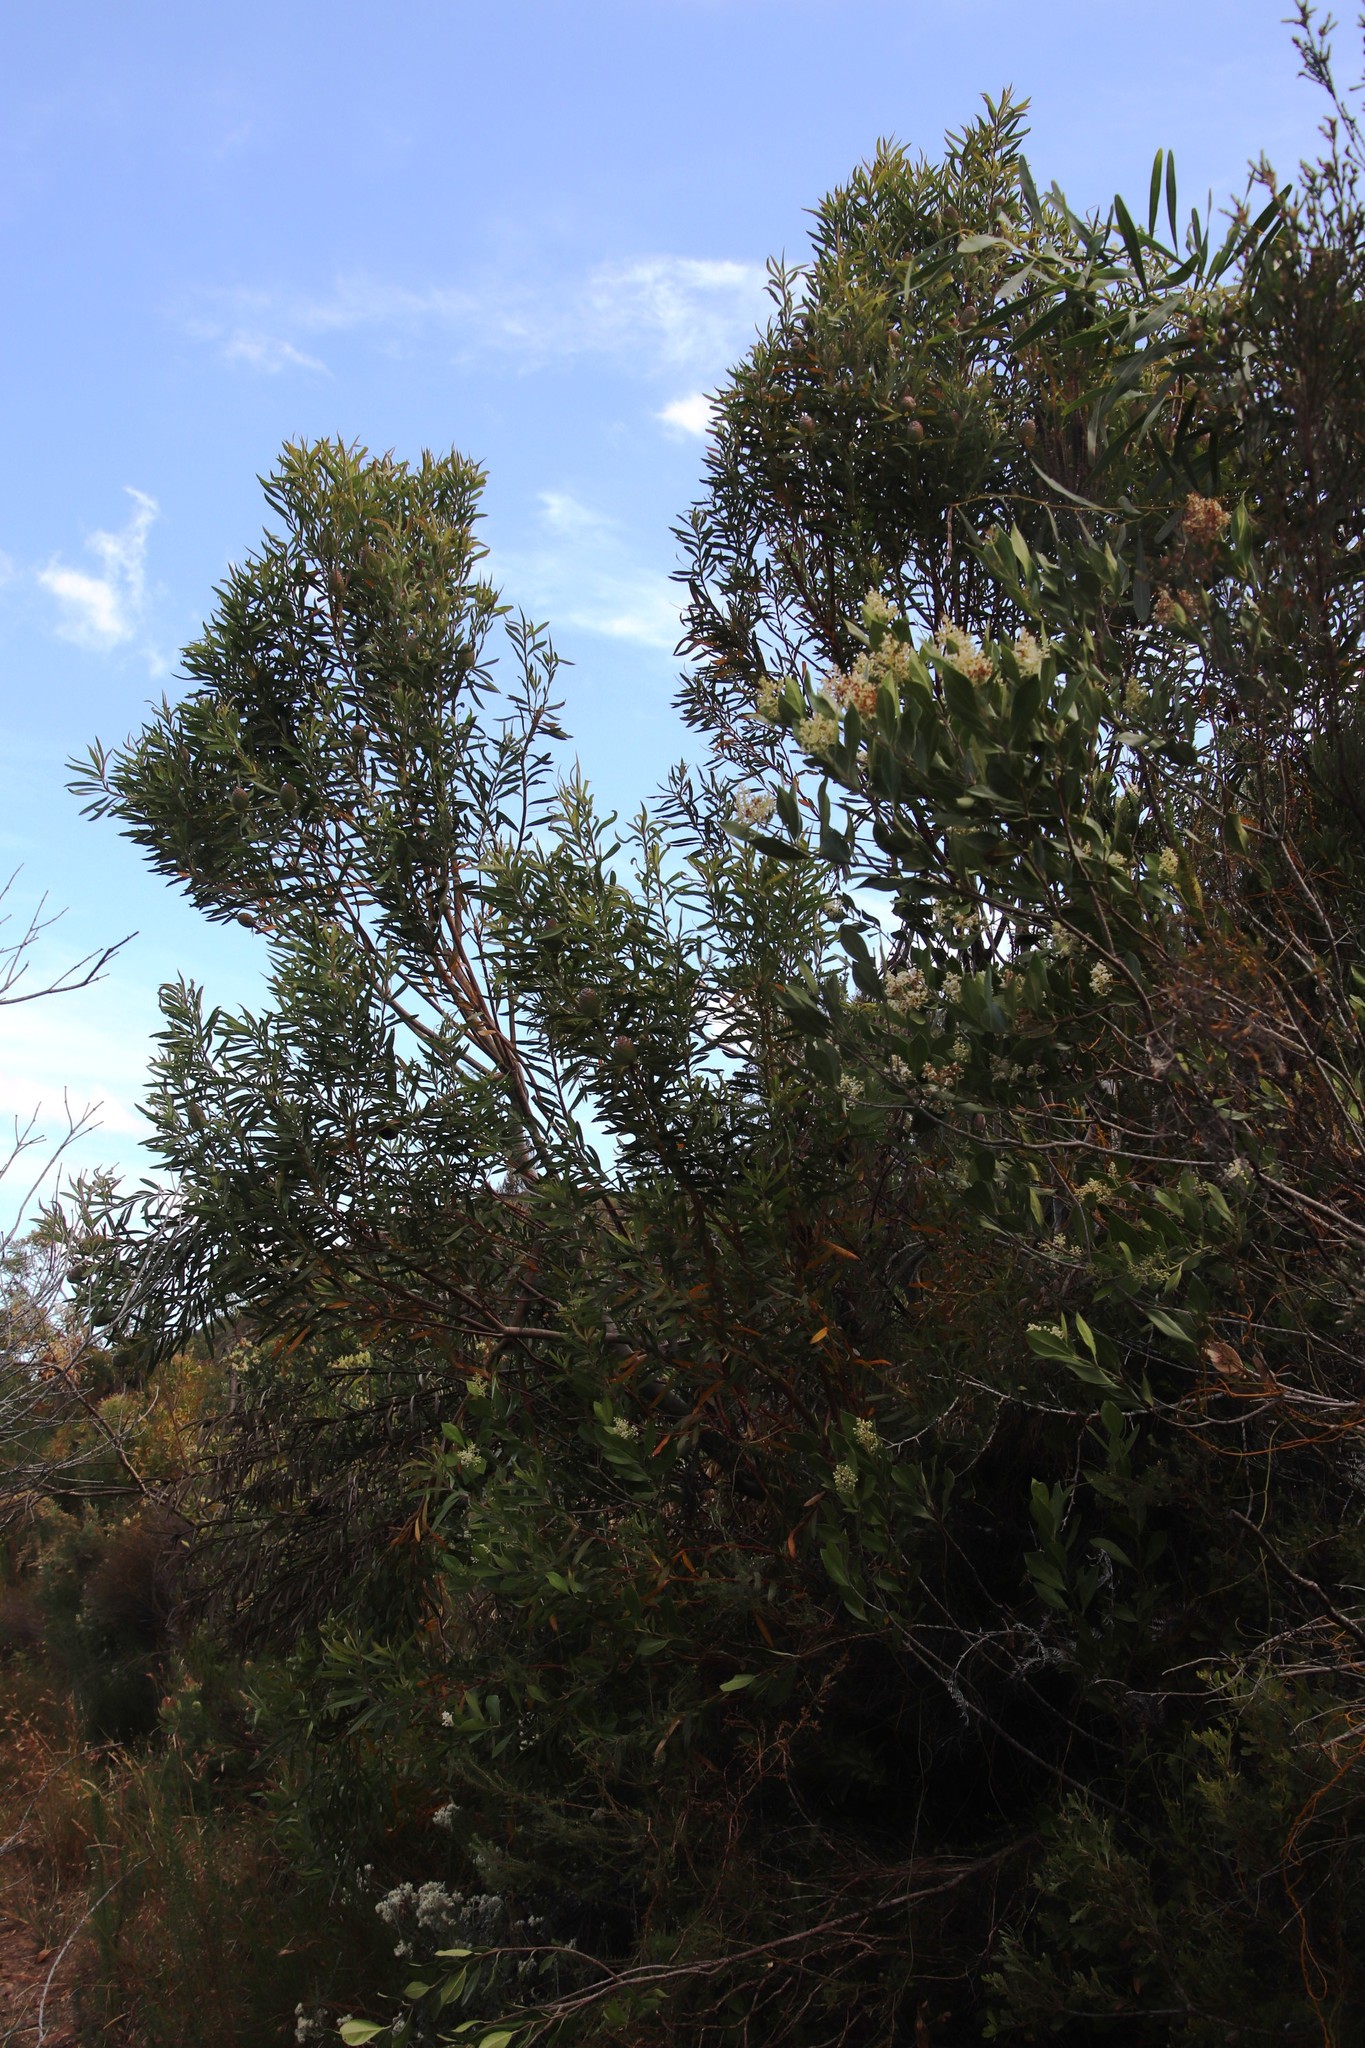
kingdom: Plantae
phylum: Tracheophyta
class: Magnoliopsida
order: Proteales
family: Proteaceae
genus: Leucadendron
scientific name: Leucadendron salicifolium
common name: Common stream conebush
